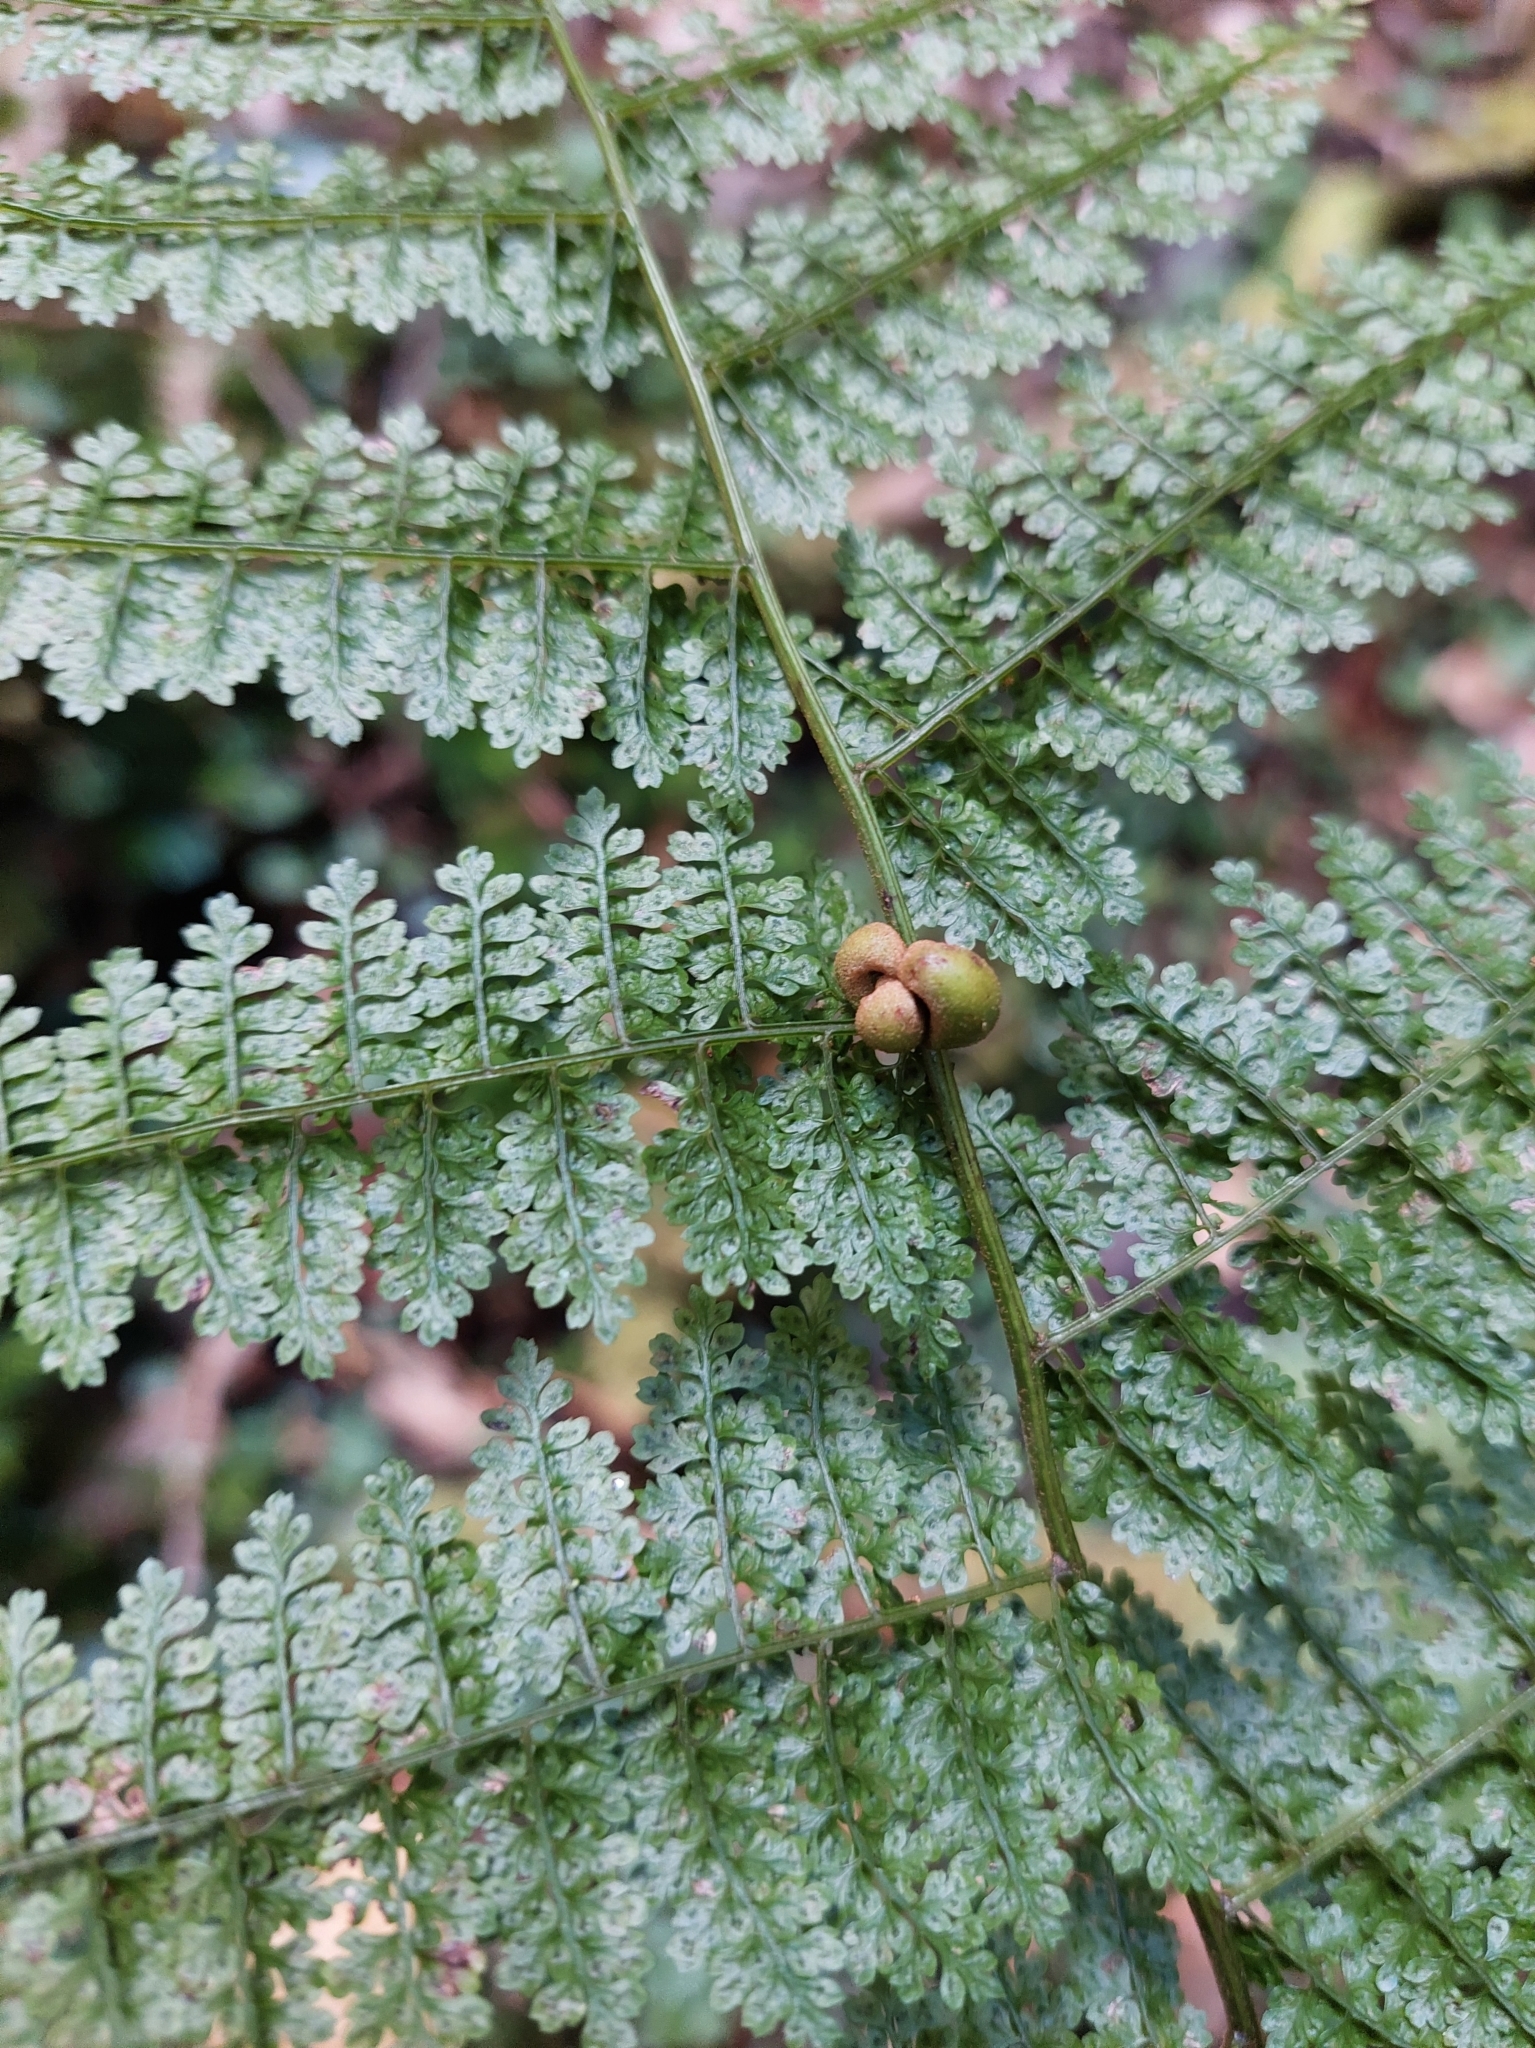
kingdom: Plantae
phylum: Tracheophyta
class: Polypodiopsida
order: Polypodiales
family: Dennstaedtiaceae
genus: Monachosorum
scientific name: Monachosorum henryi
